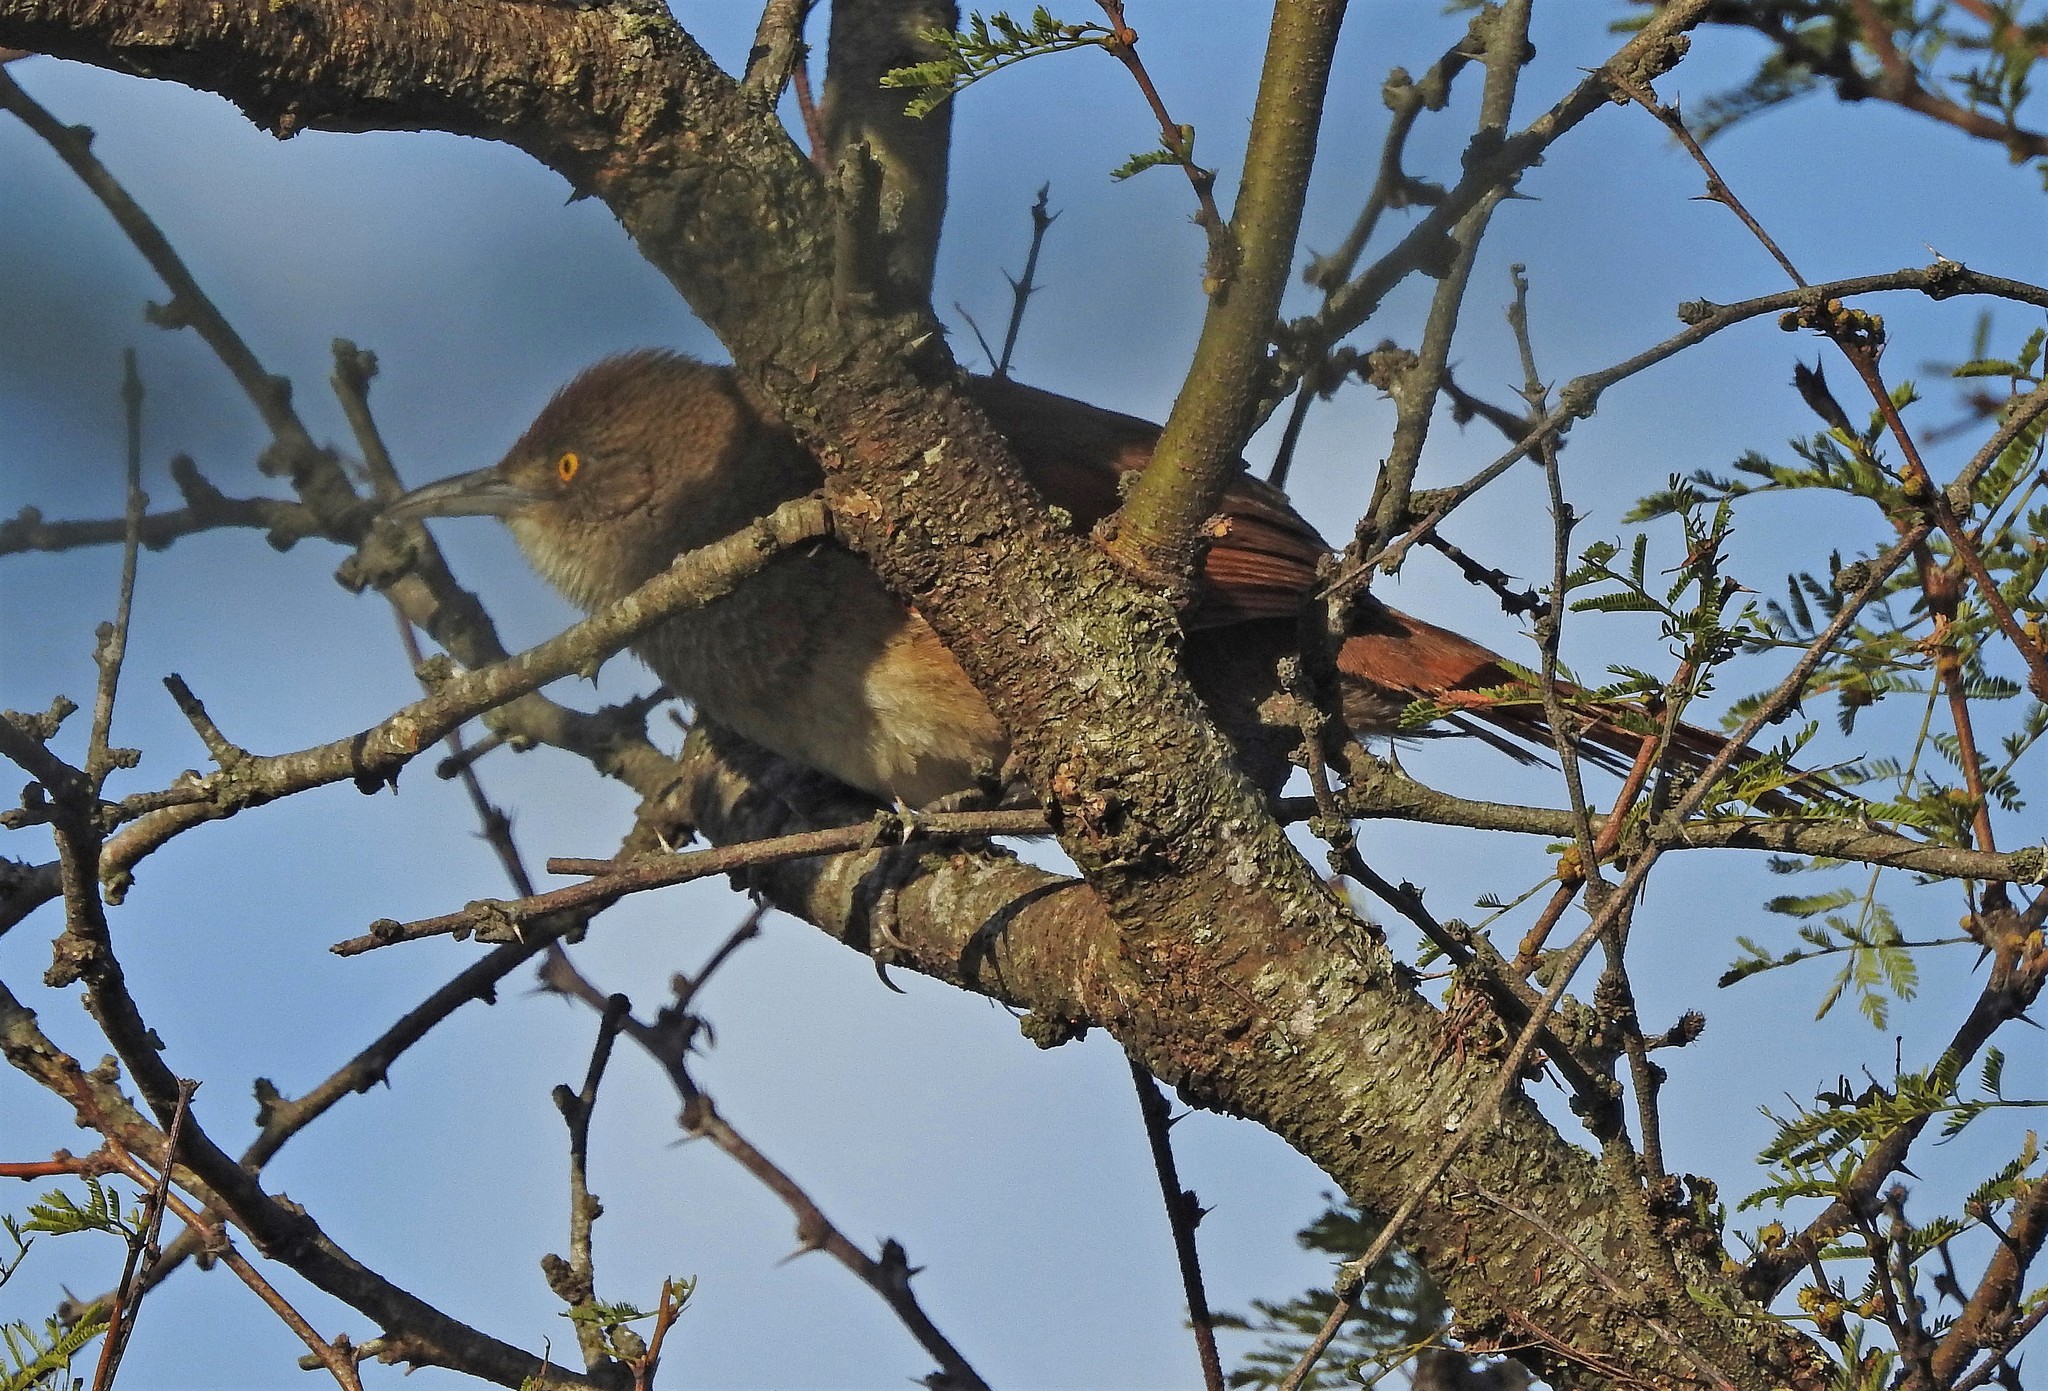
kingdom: Animalia
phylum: Chordata
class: Aves
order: Passeriformes
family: Furnariidae
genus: Phacellodomus
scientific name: Phacellodomus ruber
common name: Greater thornbird
